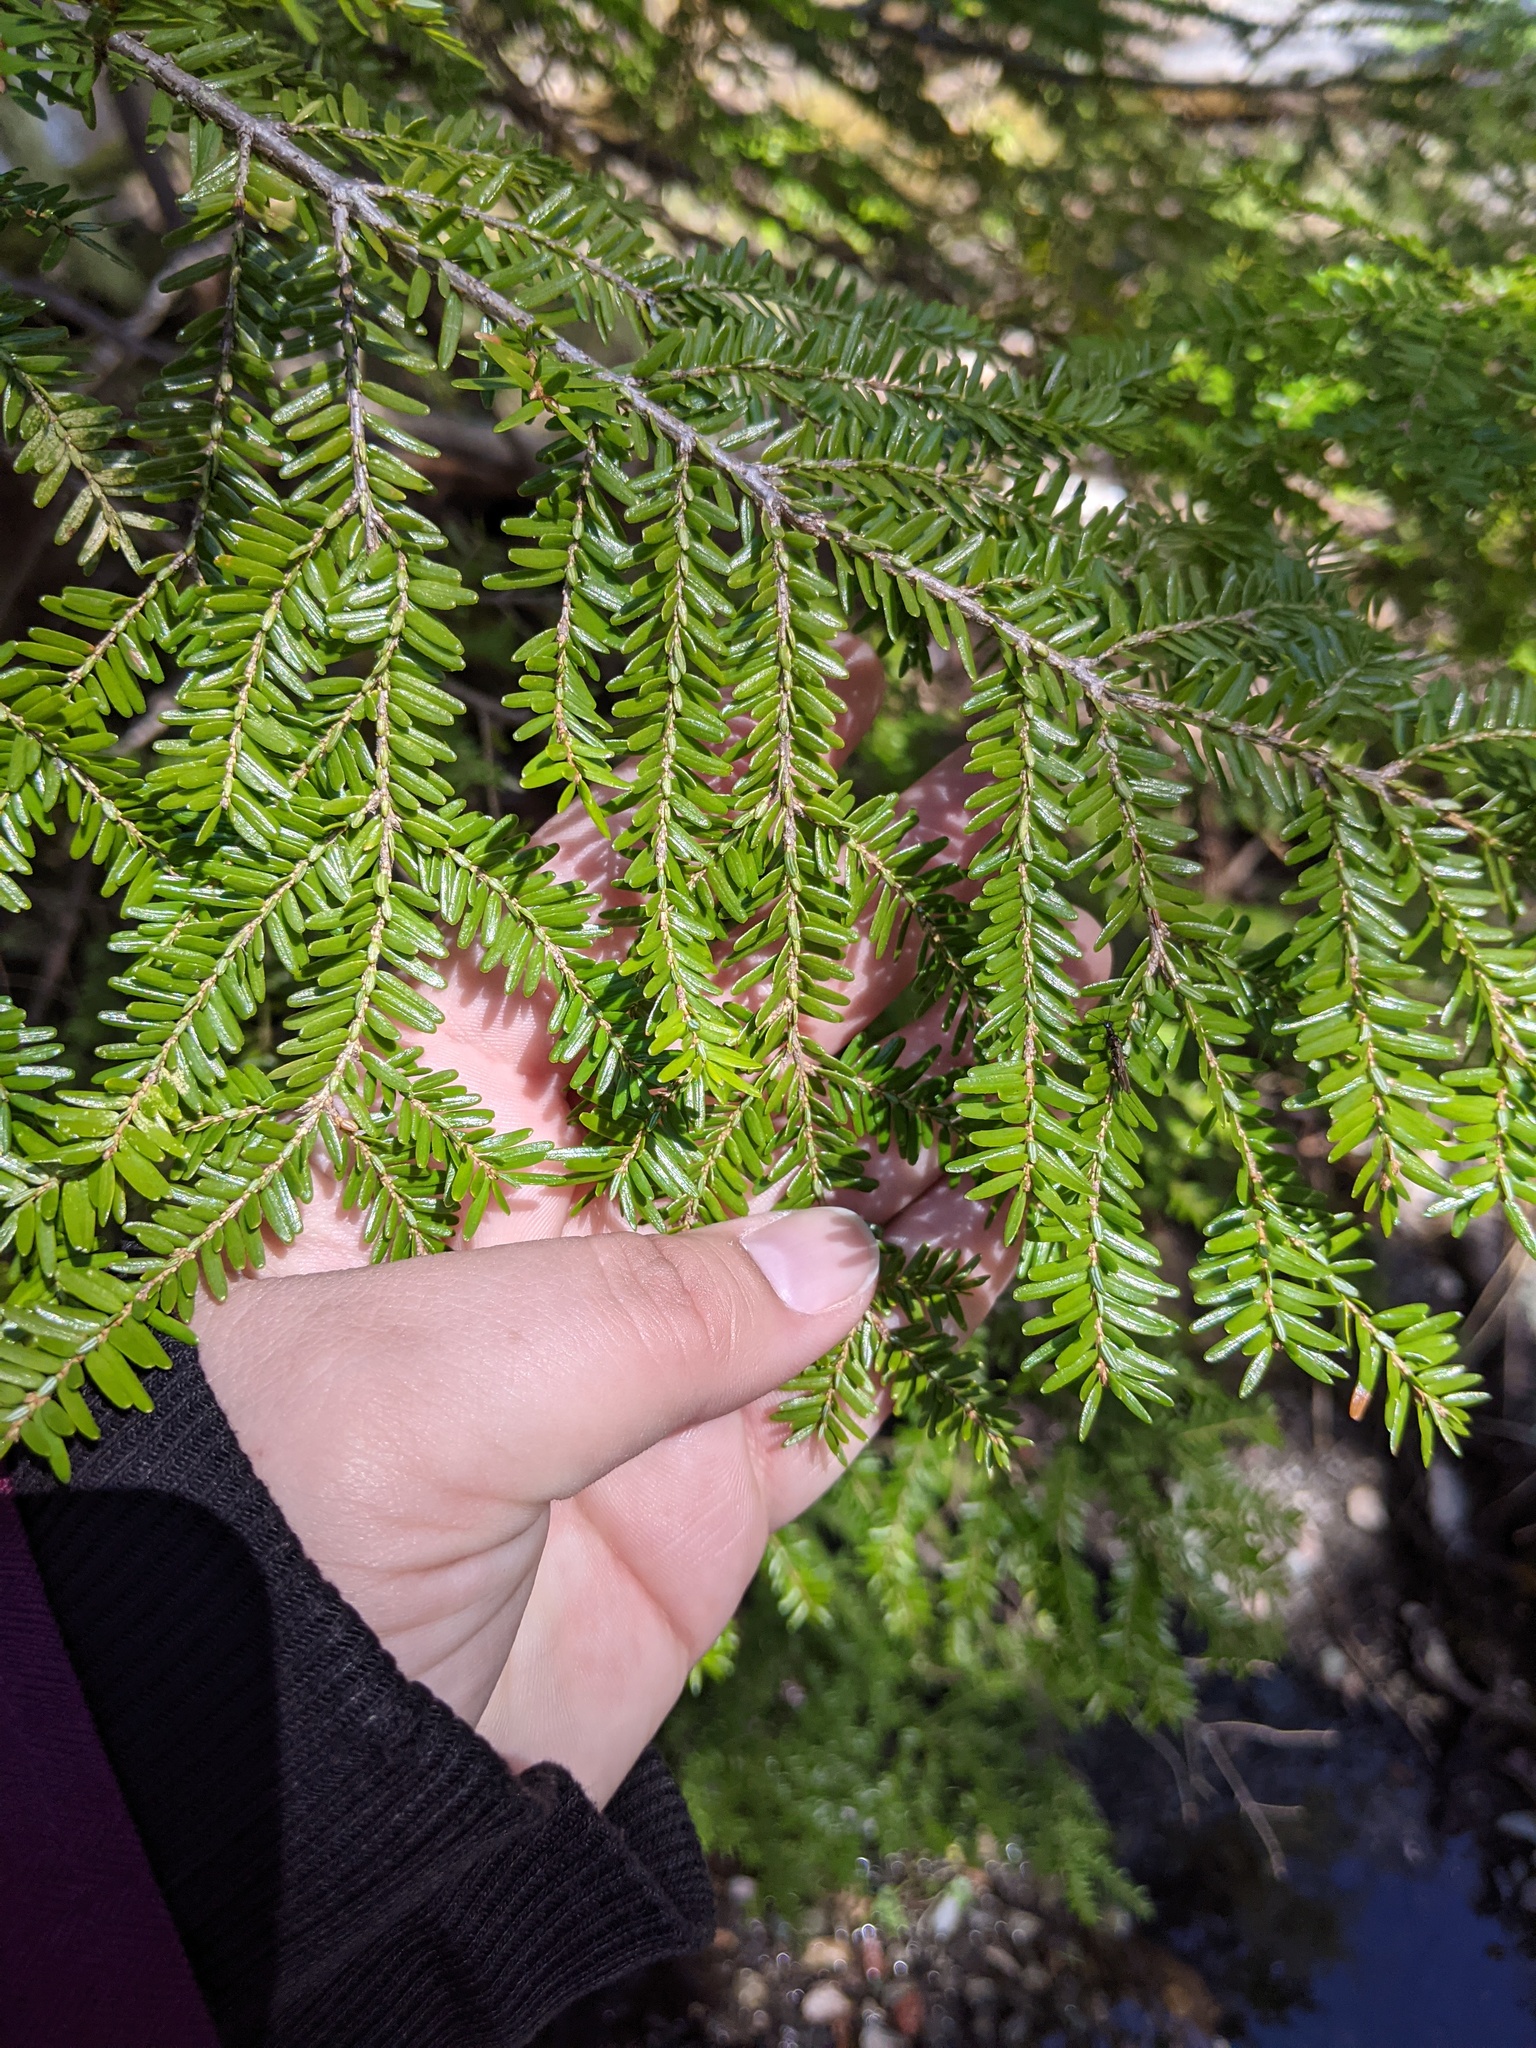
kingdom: Plantae
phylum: Tracheophyta
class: Pinopsida
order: Pinales
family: Pinaceae
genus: Tsuga
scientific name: Tsuga canadensis
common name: Eastern hemlock
